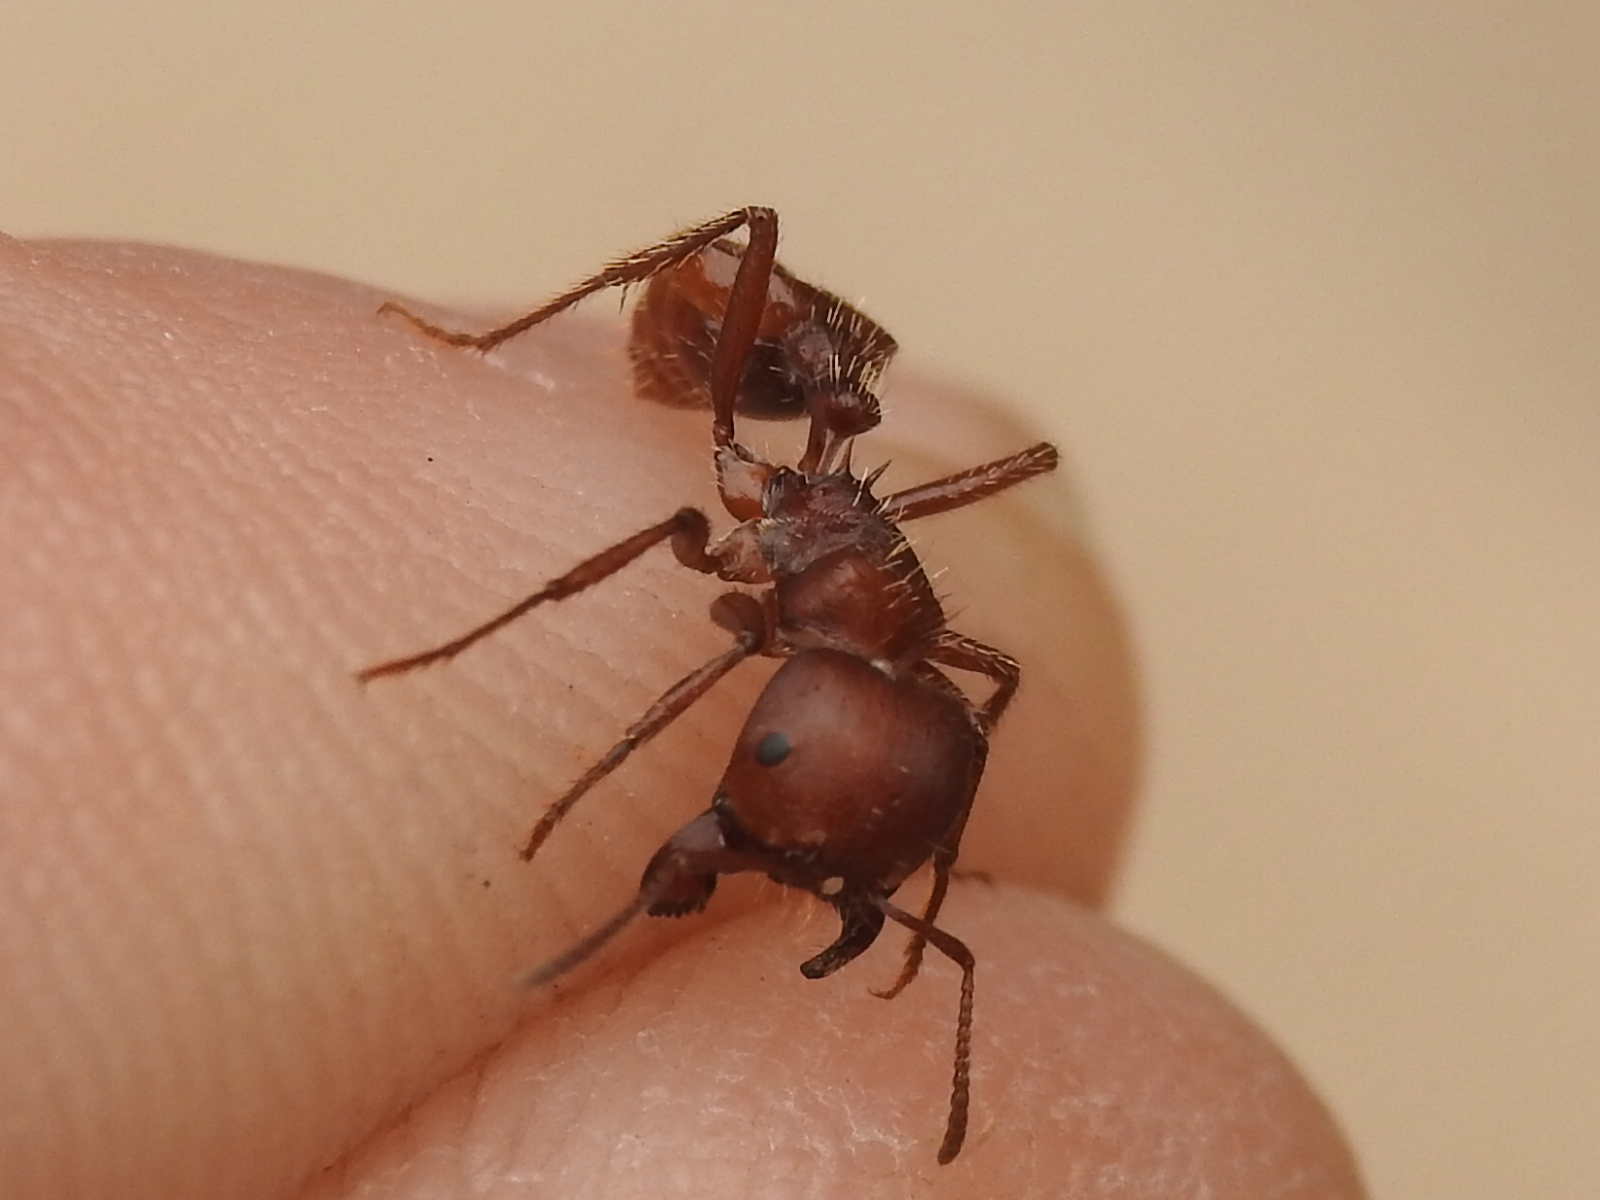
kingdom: Animalia
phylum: Arthropoda
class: Insecta
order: Hymenoptera
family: Formicidae
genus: Pogonomyrmex
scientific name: Pogonomyrmex barbatus
